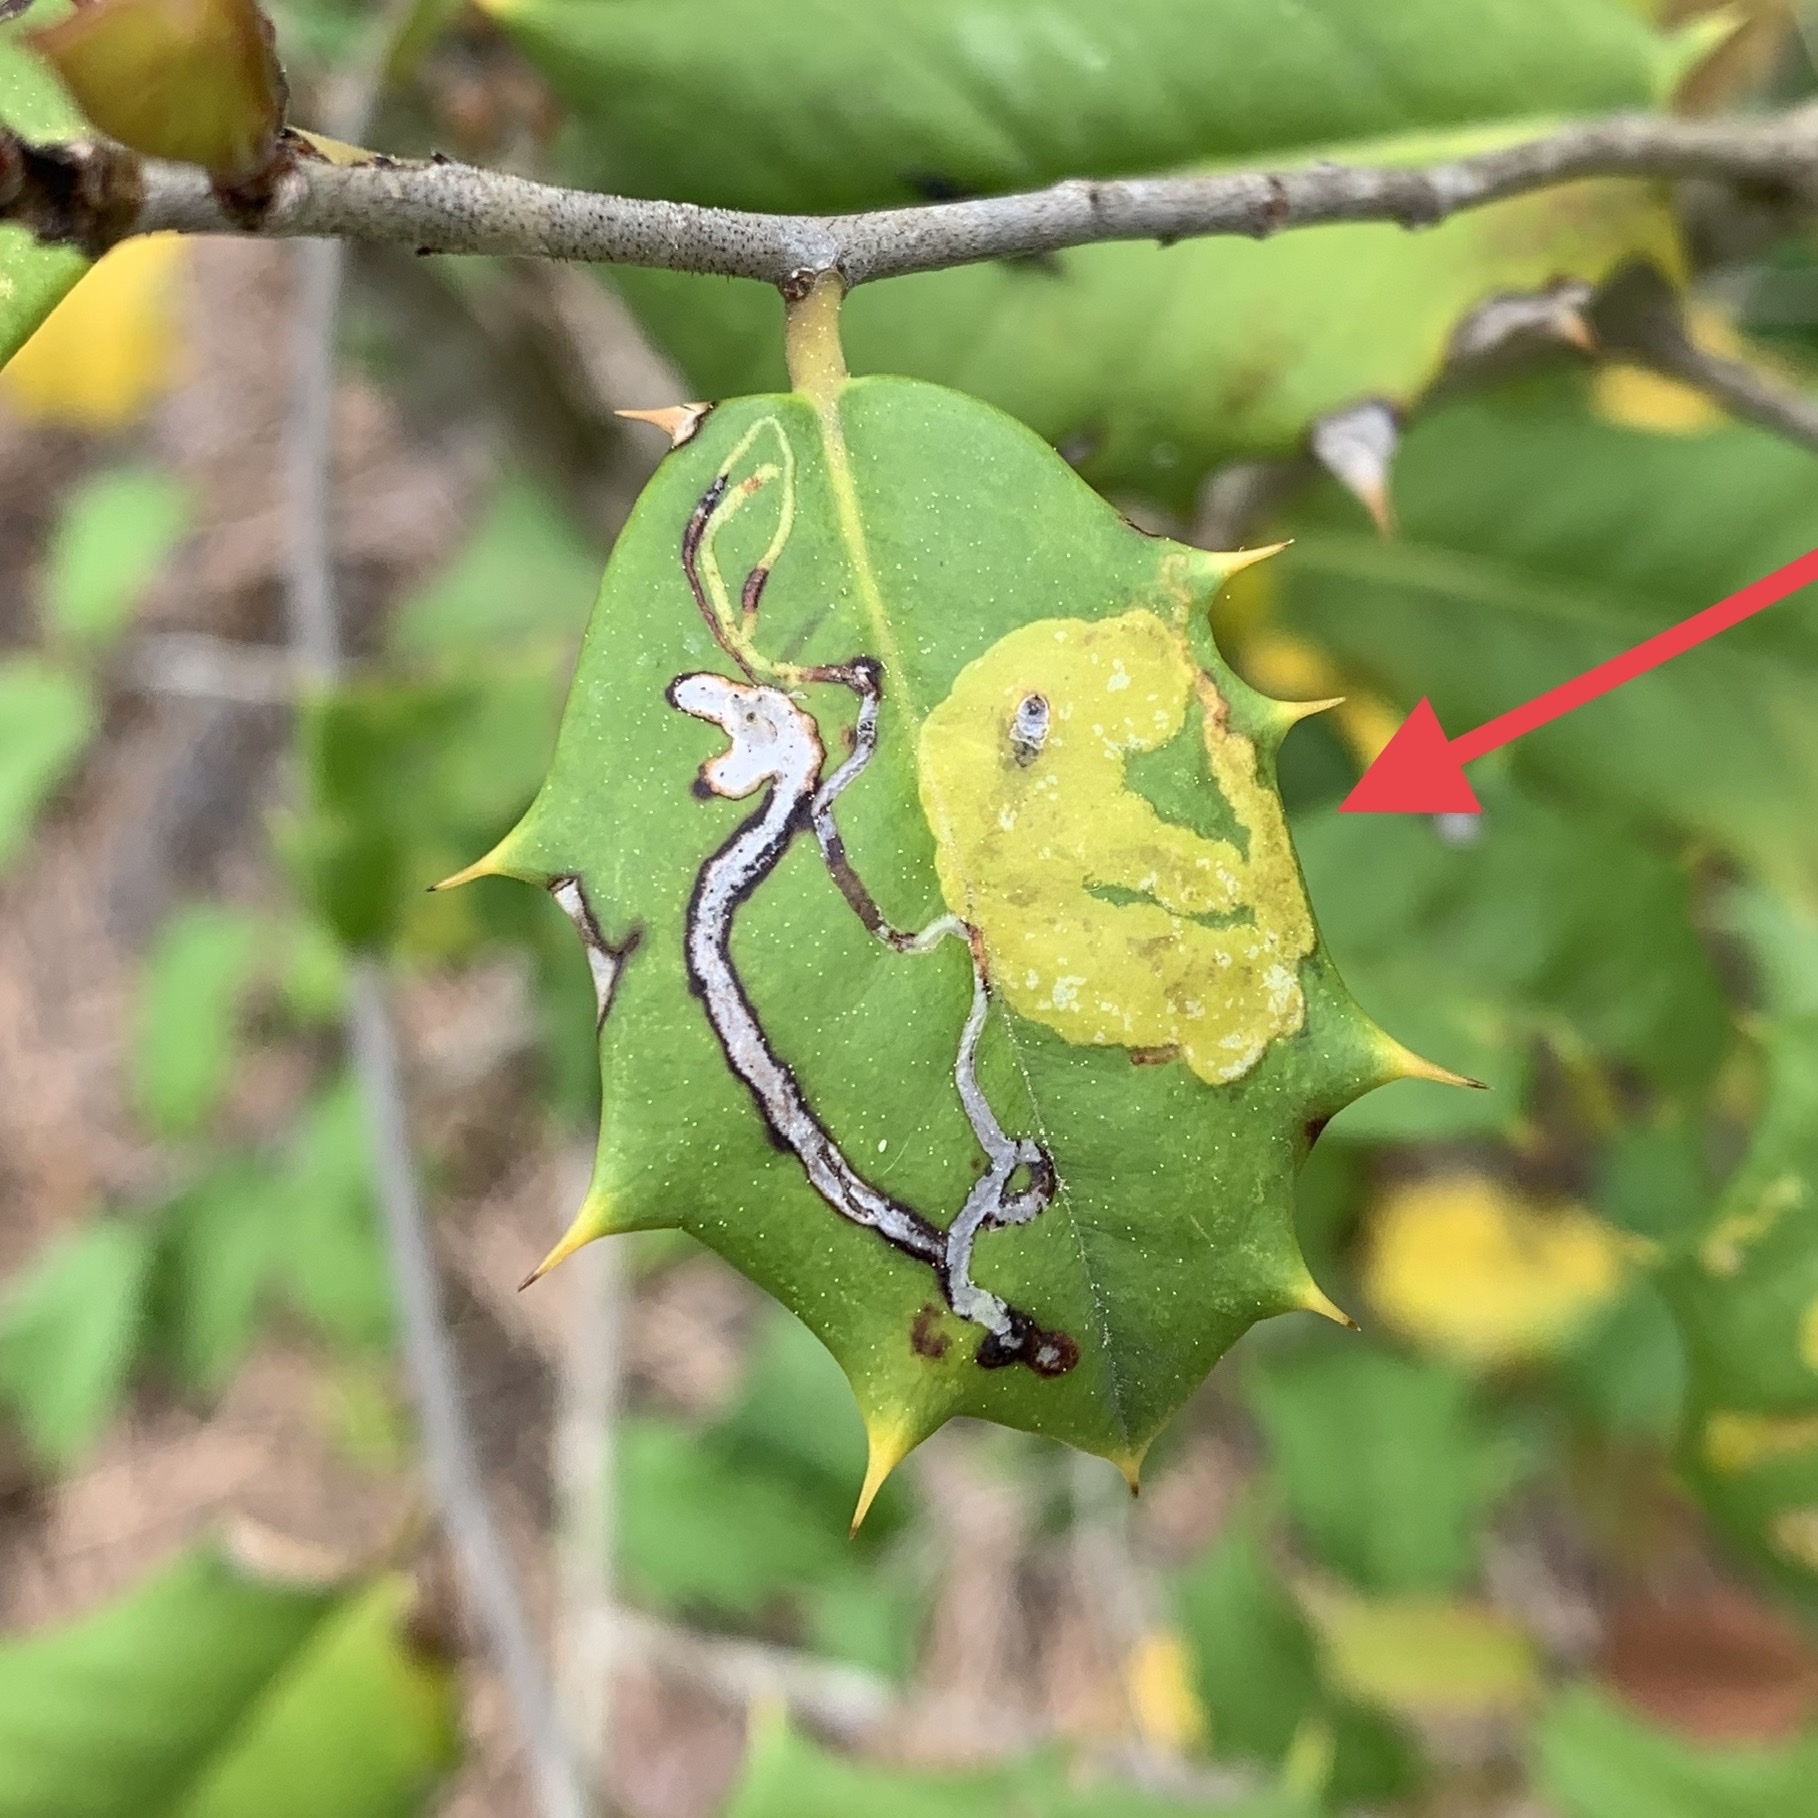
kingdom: Animalia
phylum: Arthropoda
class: Insecta
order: Diptera
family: Agromyzidae
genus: Phytomyza
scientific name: Phytomyza ilicicola
